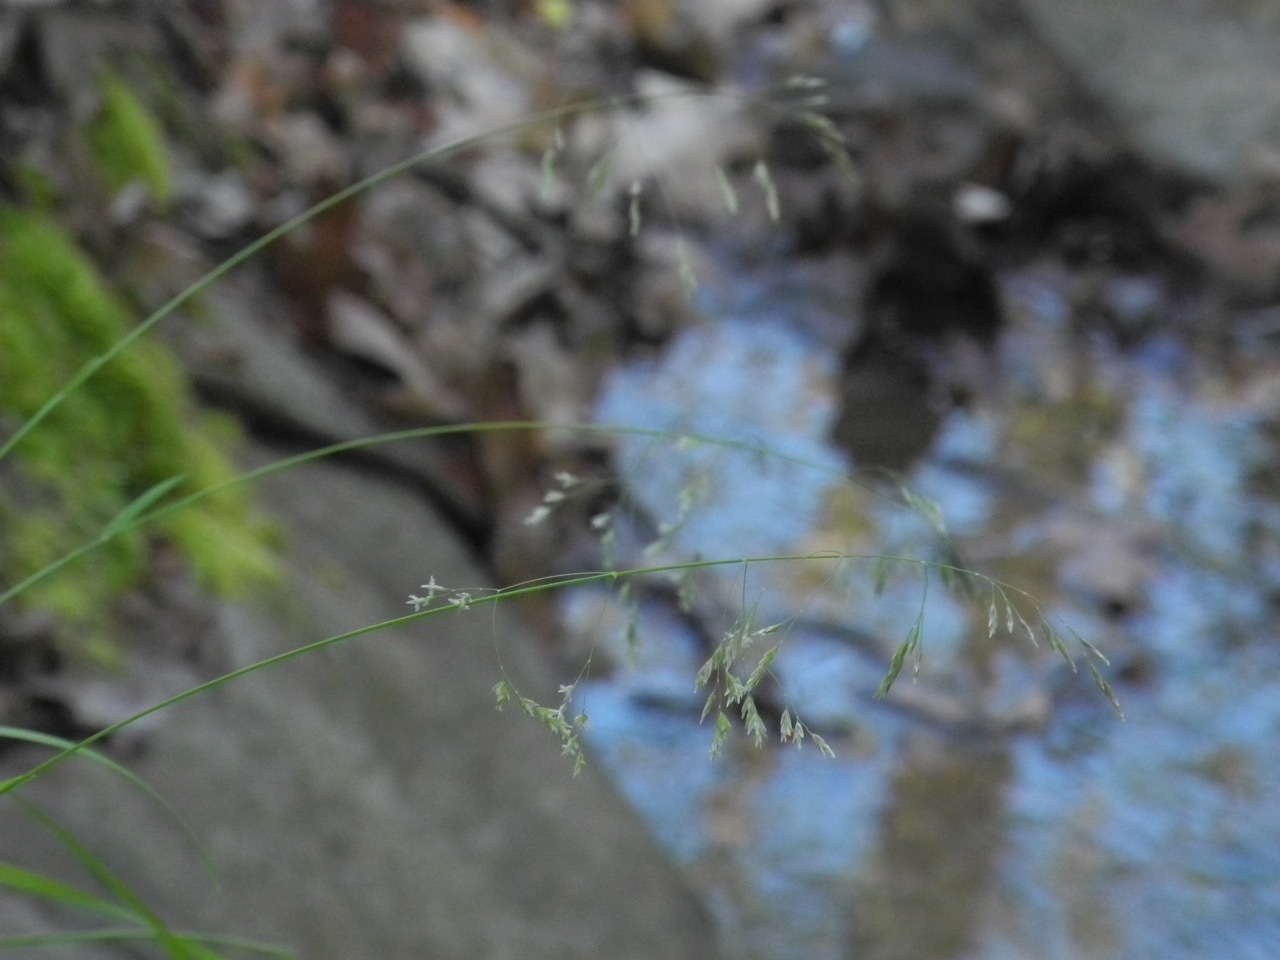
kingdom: Plantae
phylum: Tracheophyta
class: Liliopsida
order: Poales
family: Poaceae
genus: Poa
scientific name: Poa autumnalis
